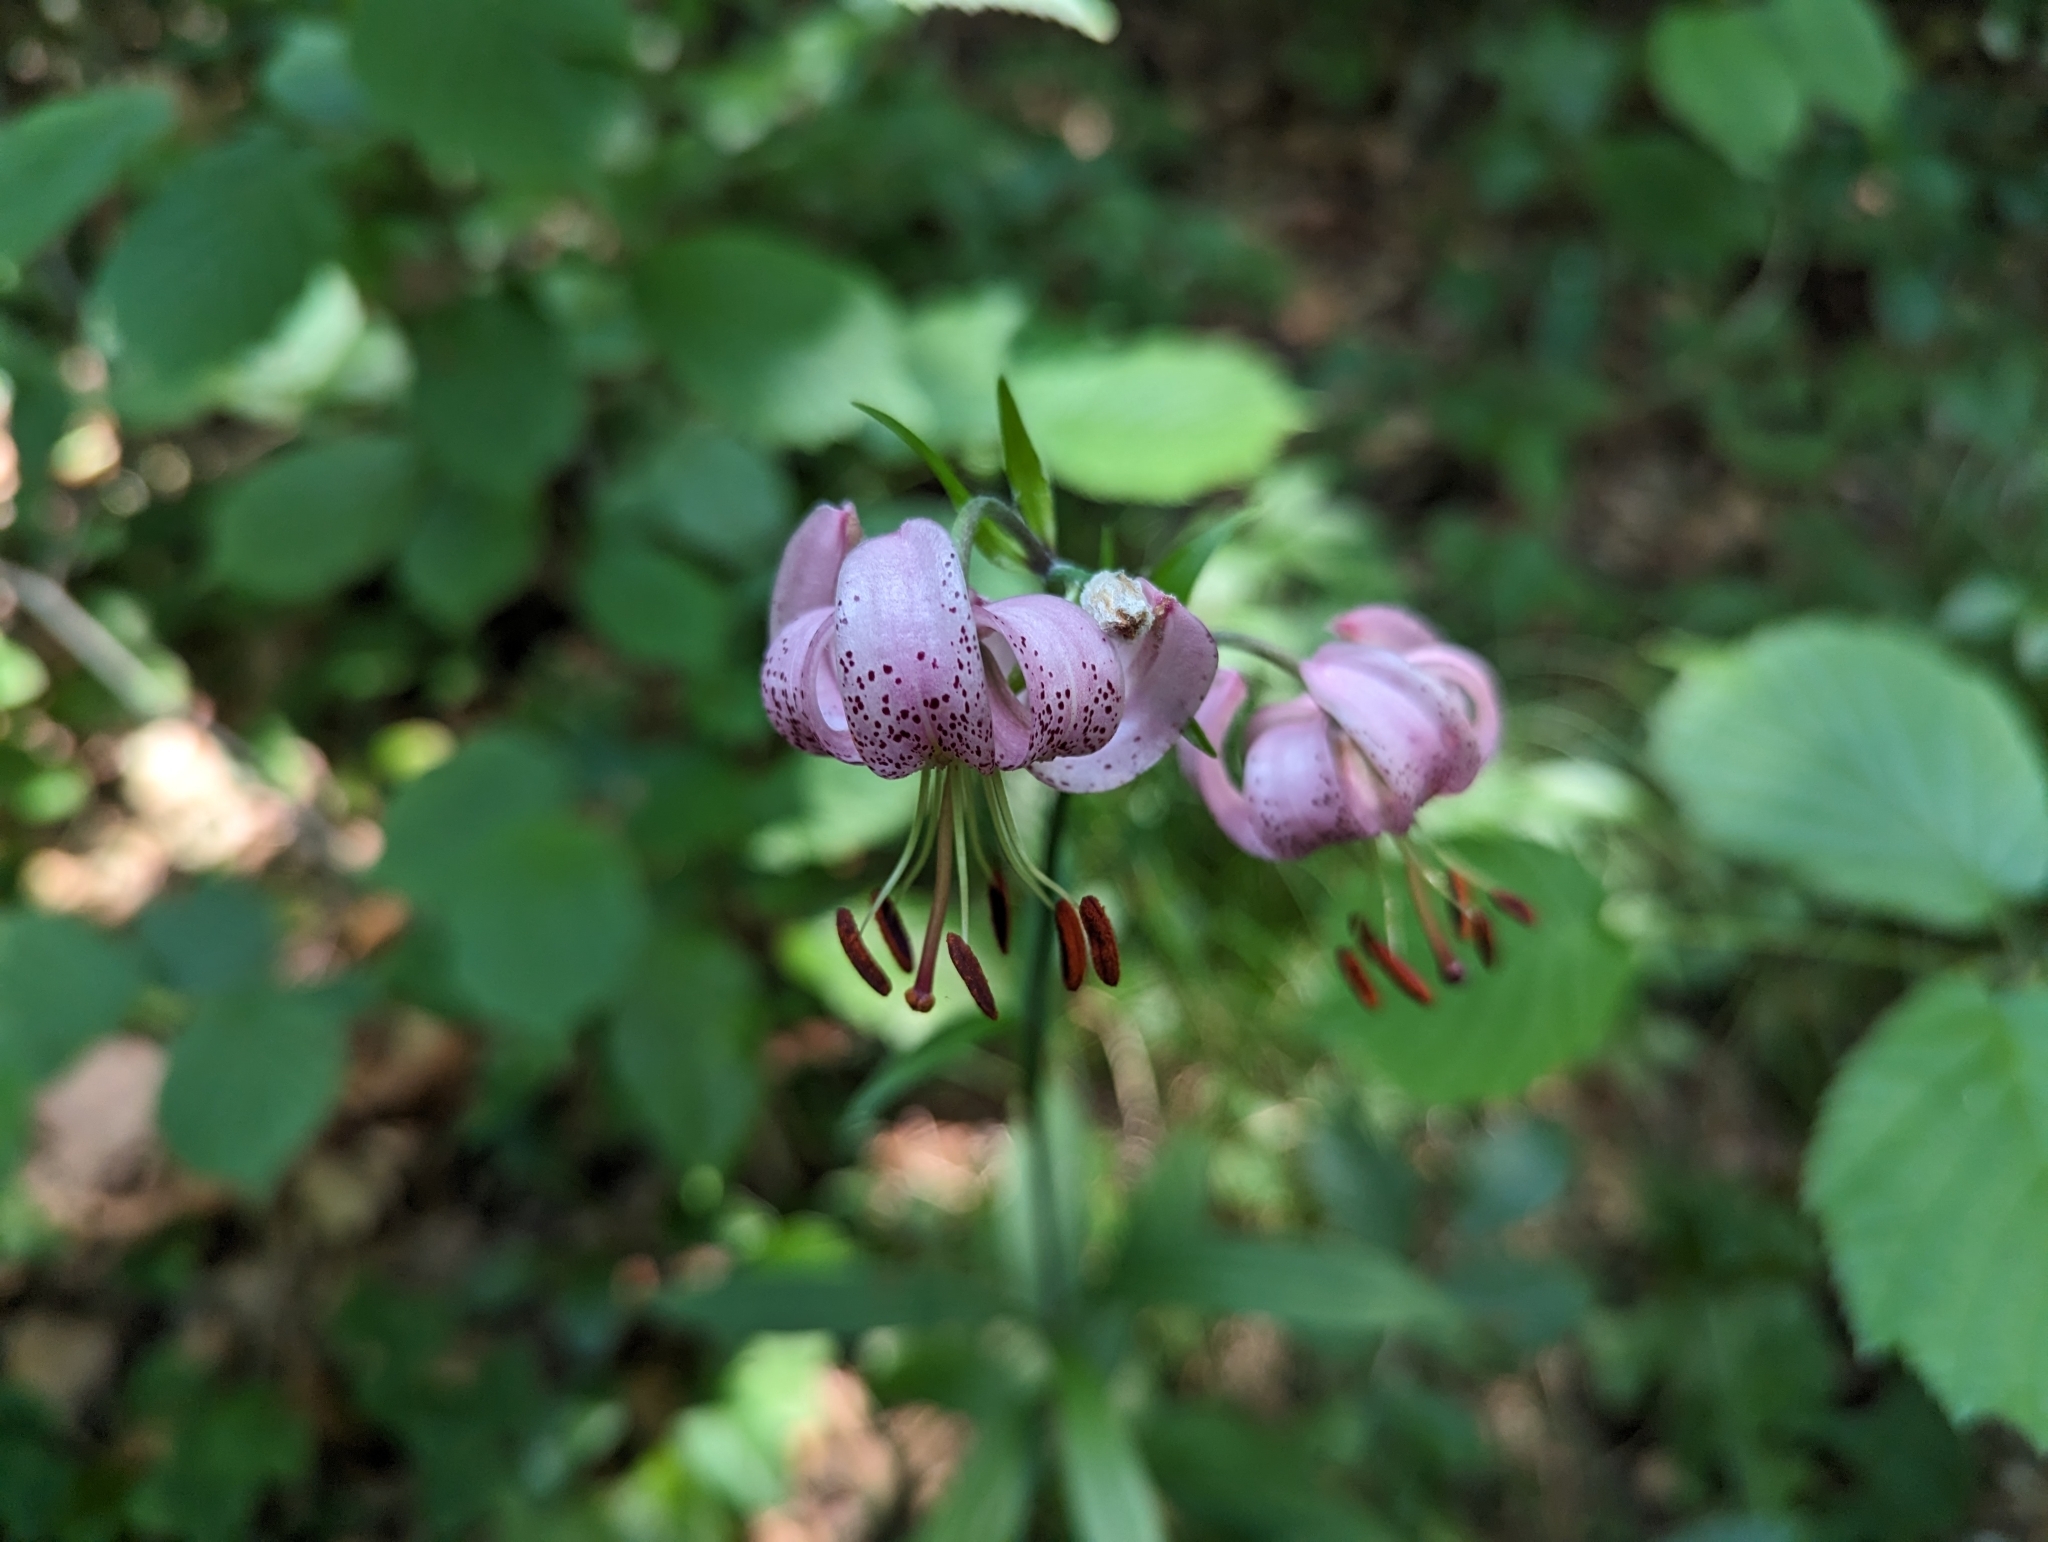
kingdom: Plantae
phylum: Tracheophyta
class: Liliopsida
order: Liliales
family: Liliaceae
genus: Lilium
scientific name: Lilium martagon
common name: Martagon lily
